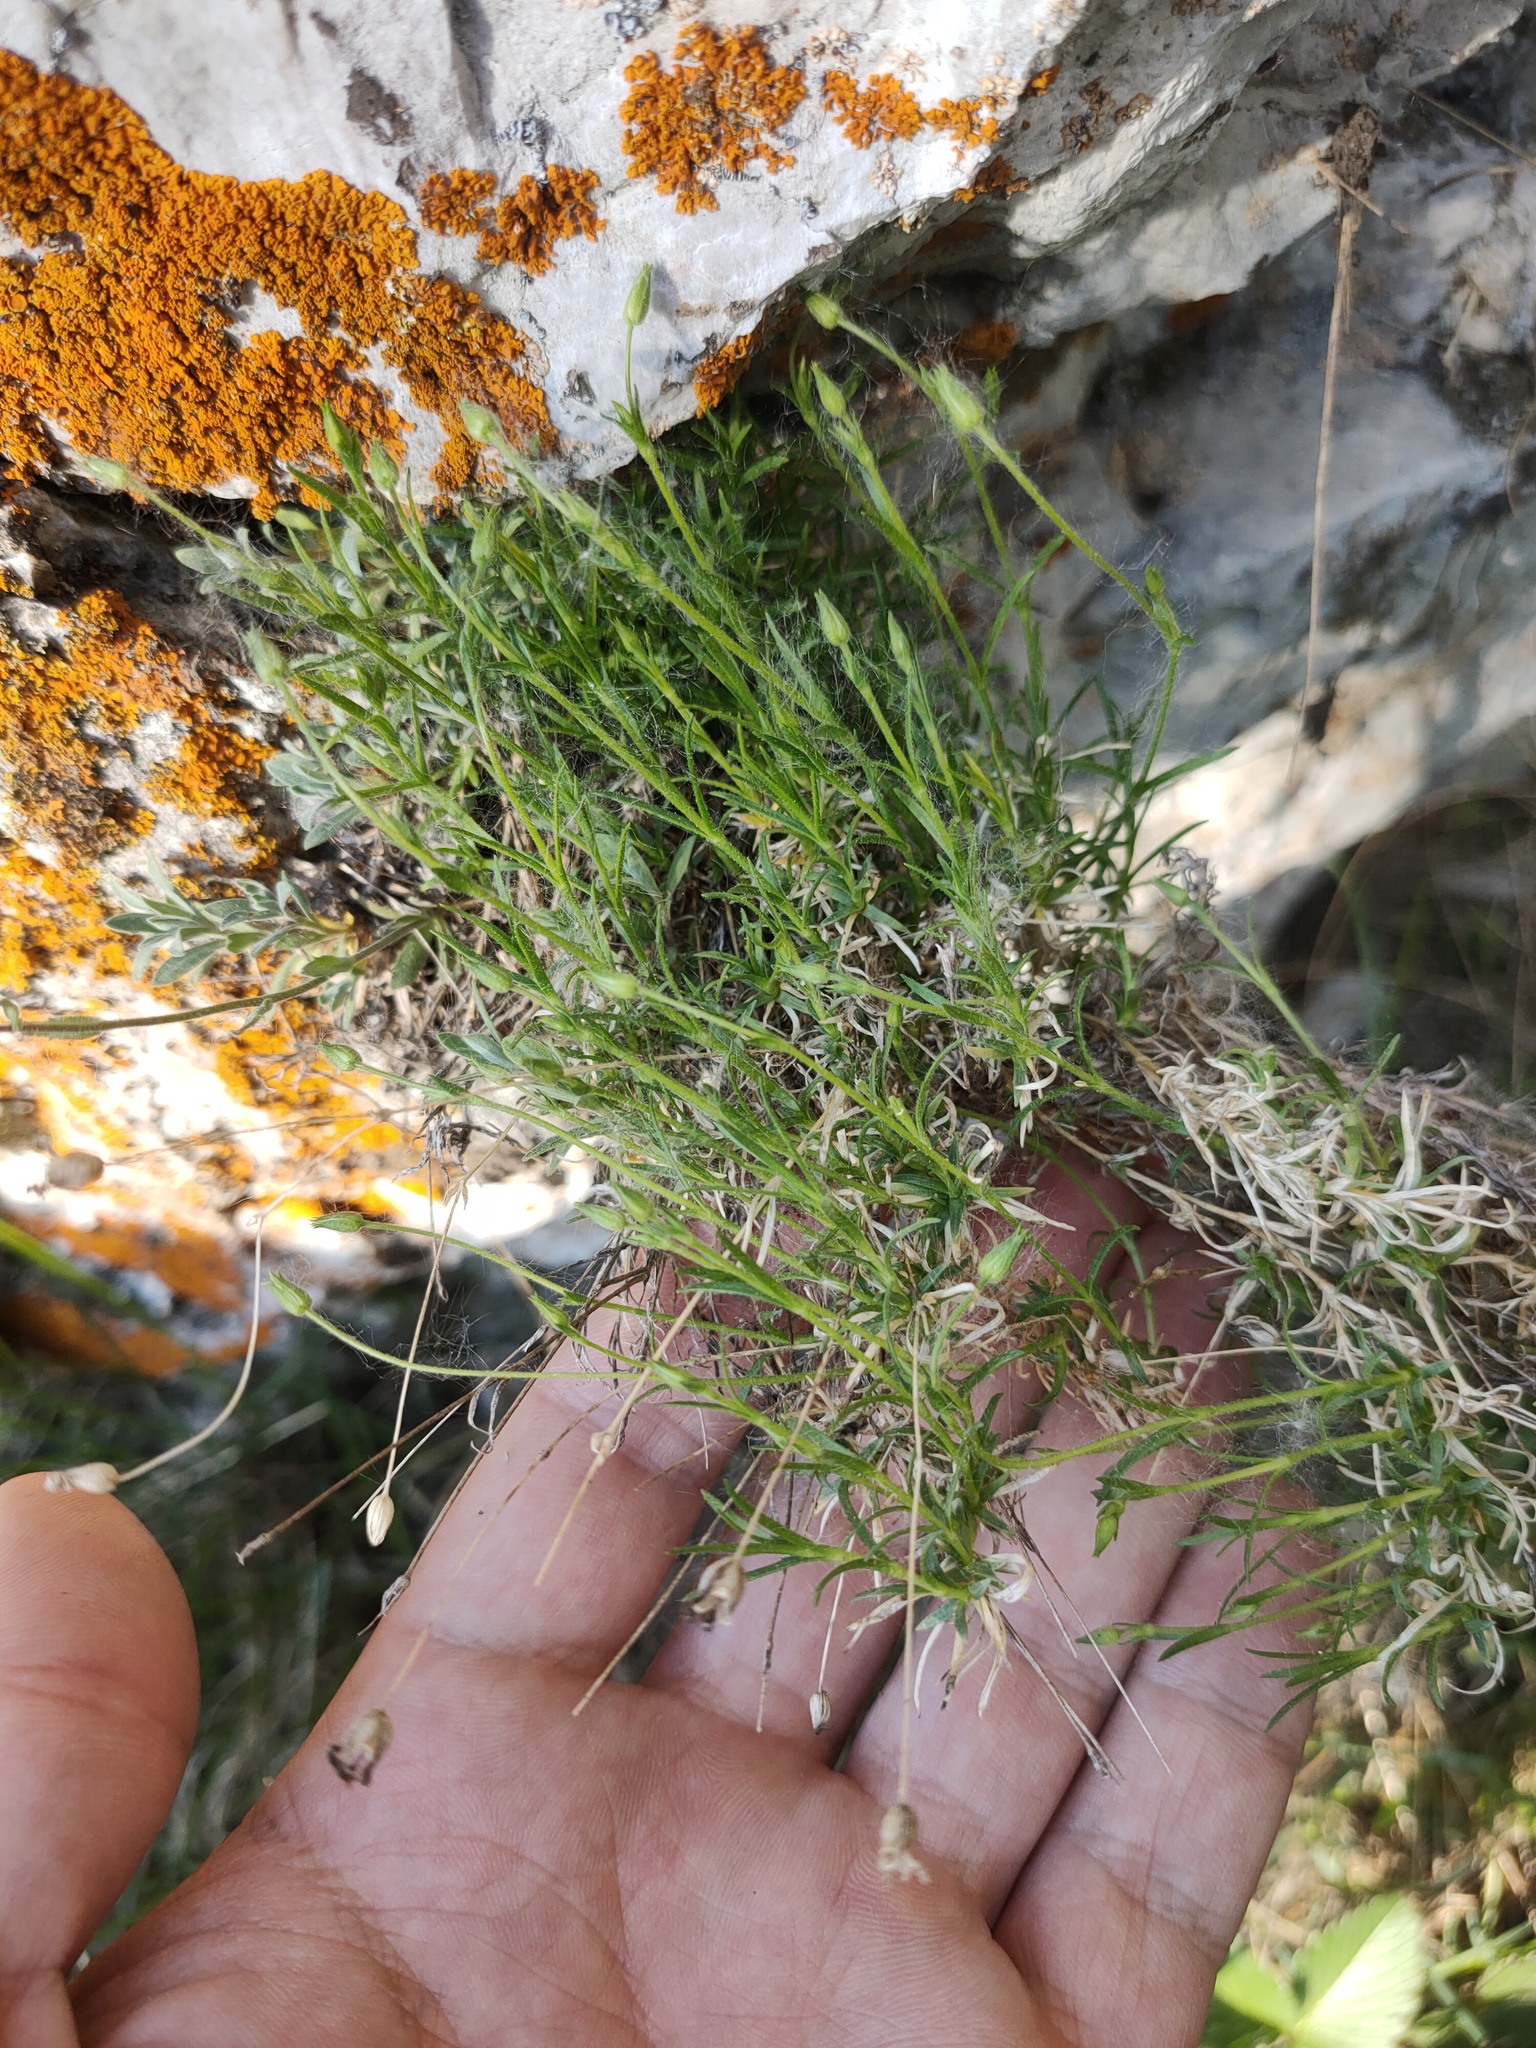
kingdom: Plantae
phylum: Tracheophyta
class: Magnoliopsida
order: Caryophyllales
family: Caryophyllaceae
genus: Sagina
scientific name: Sagina procumbens
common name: Procumbent pearlwort
